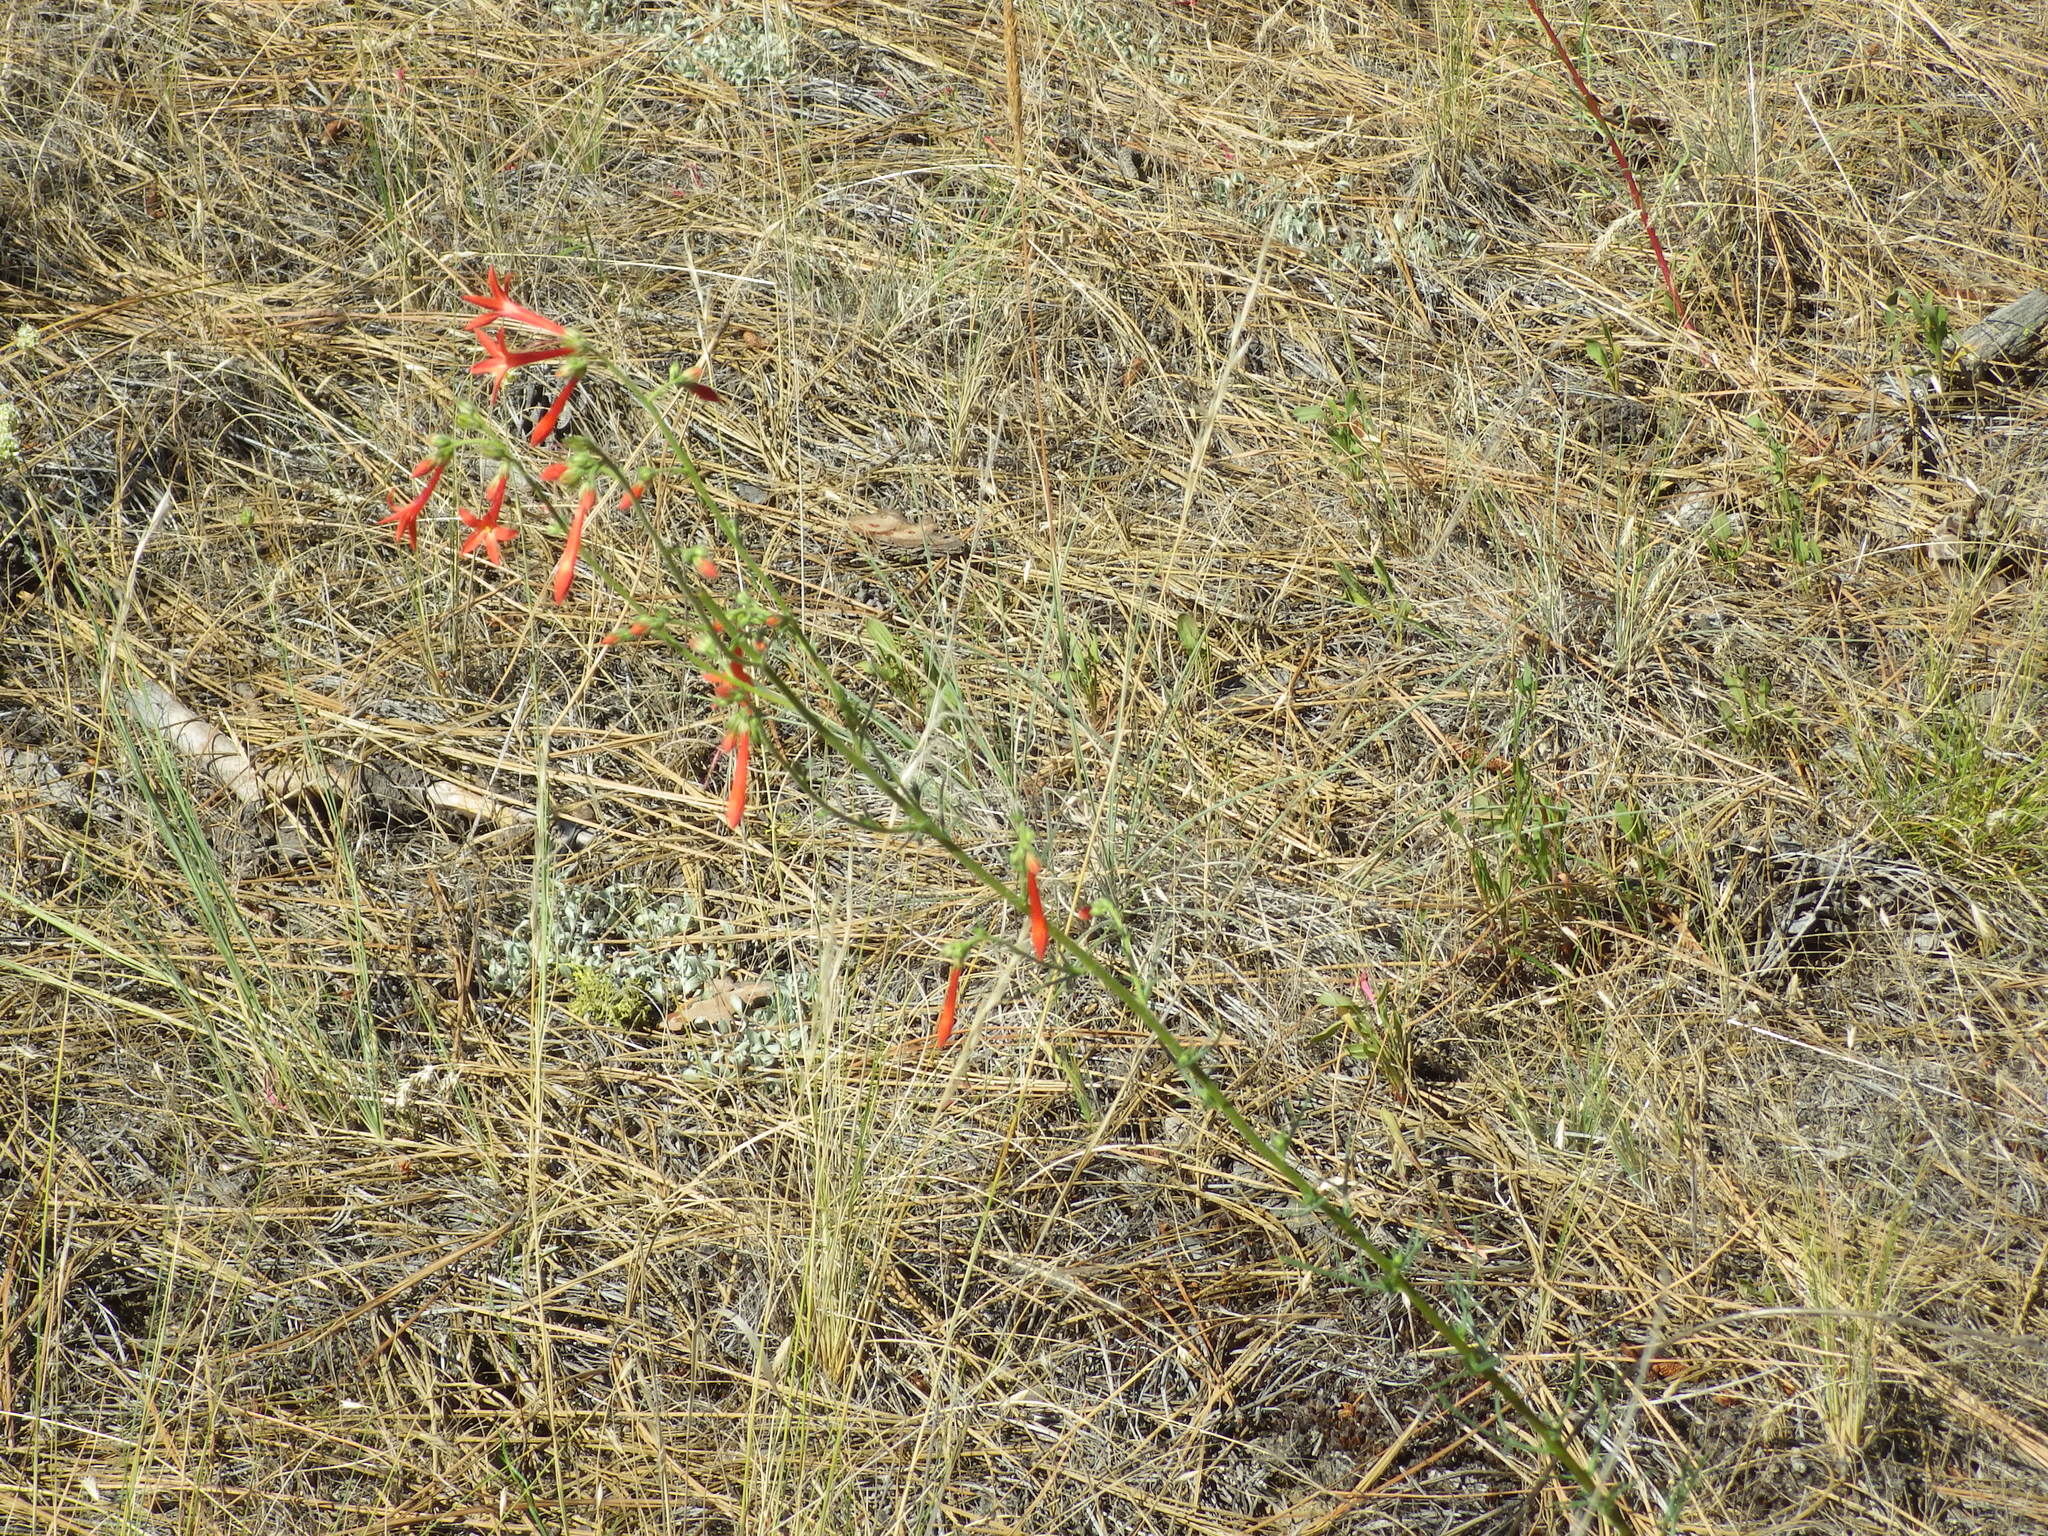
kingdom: Plantae
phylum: Tracheophyta
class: Magnoliopsida
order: Ericales
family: Polemoniaceae
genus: Ipomopsis
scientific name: Ipomopsis aggregata
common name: Scarlet gilia
